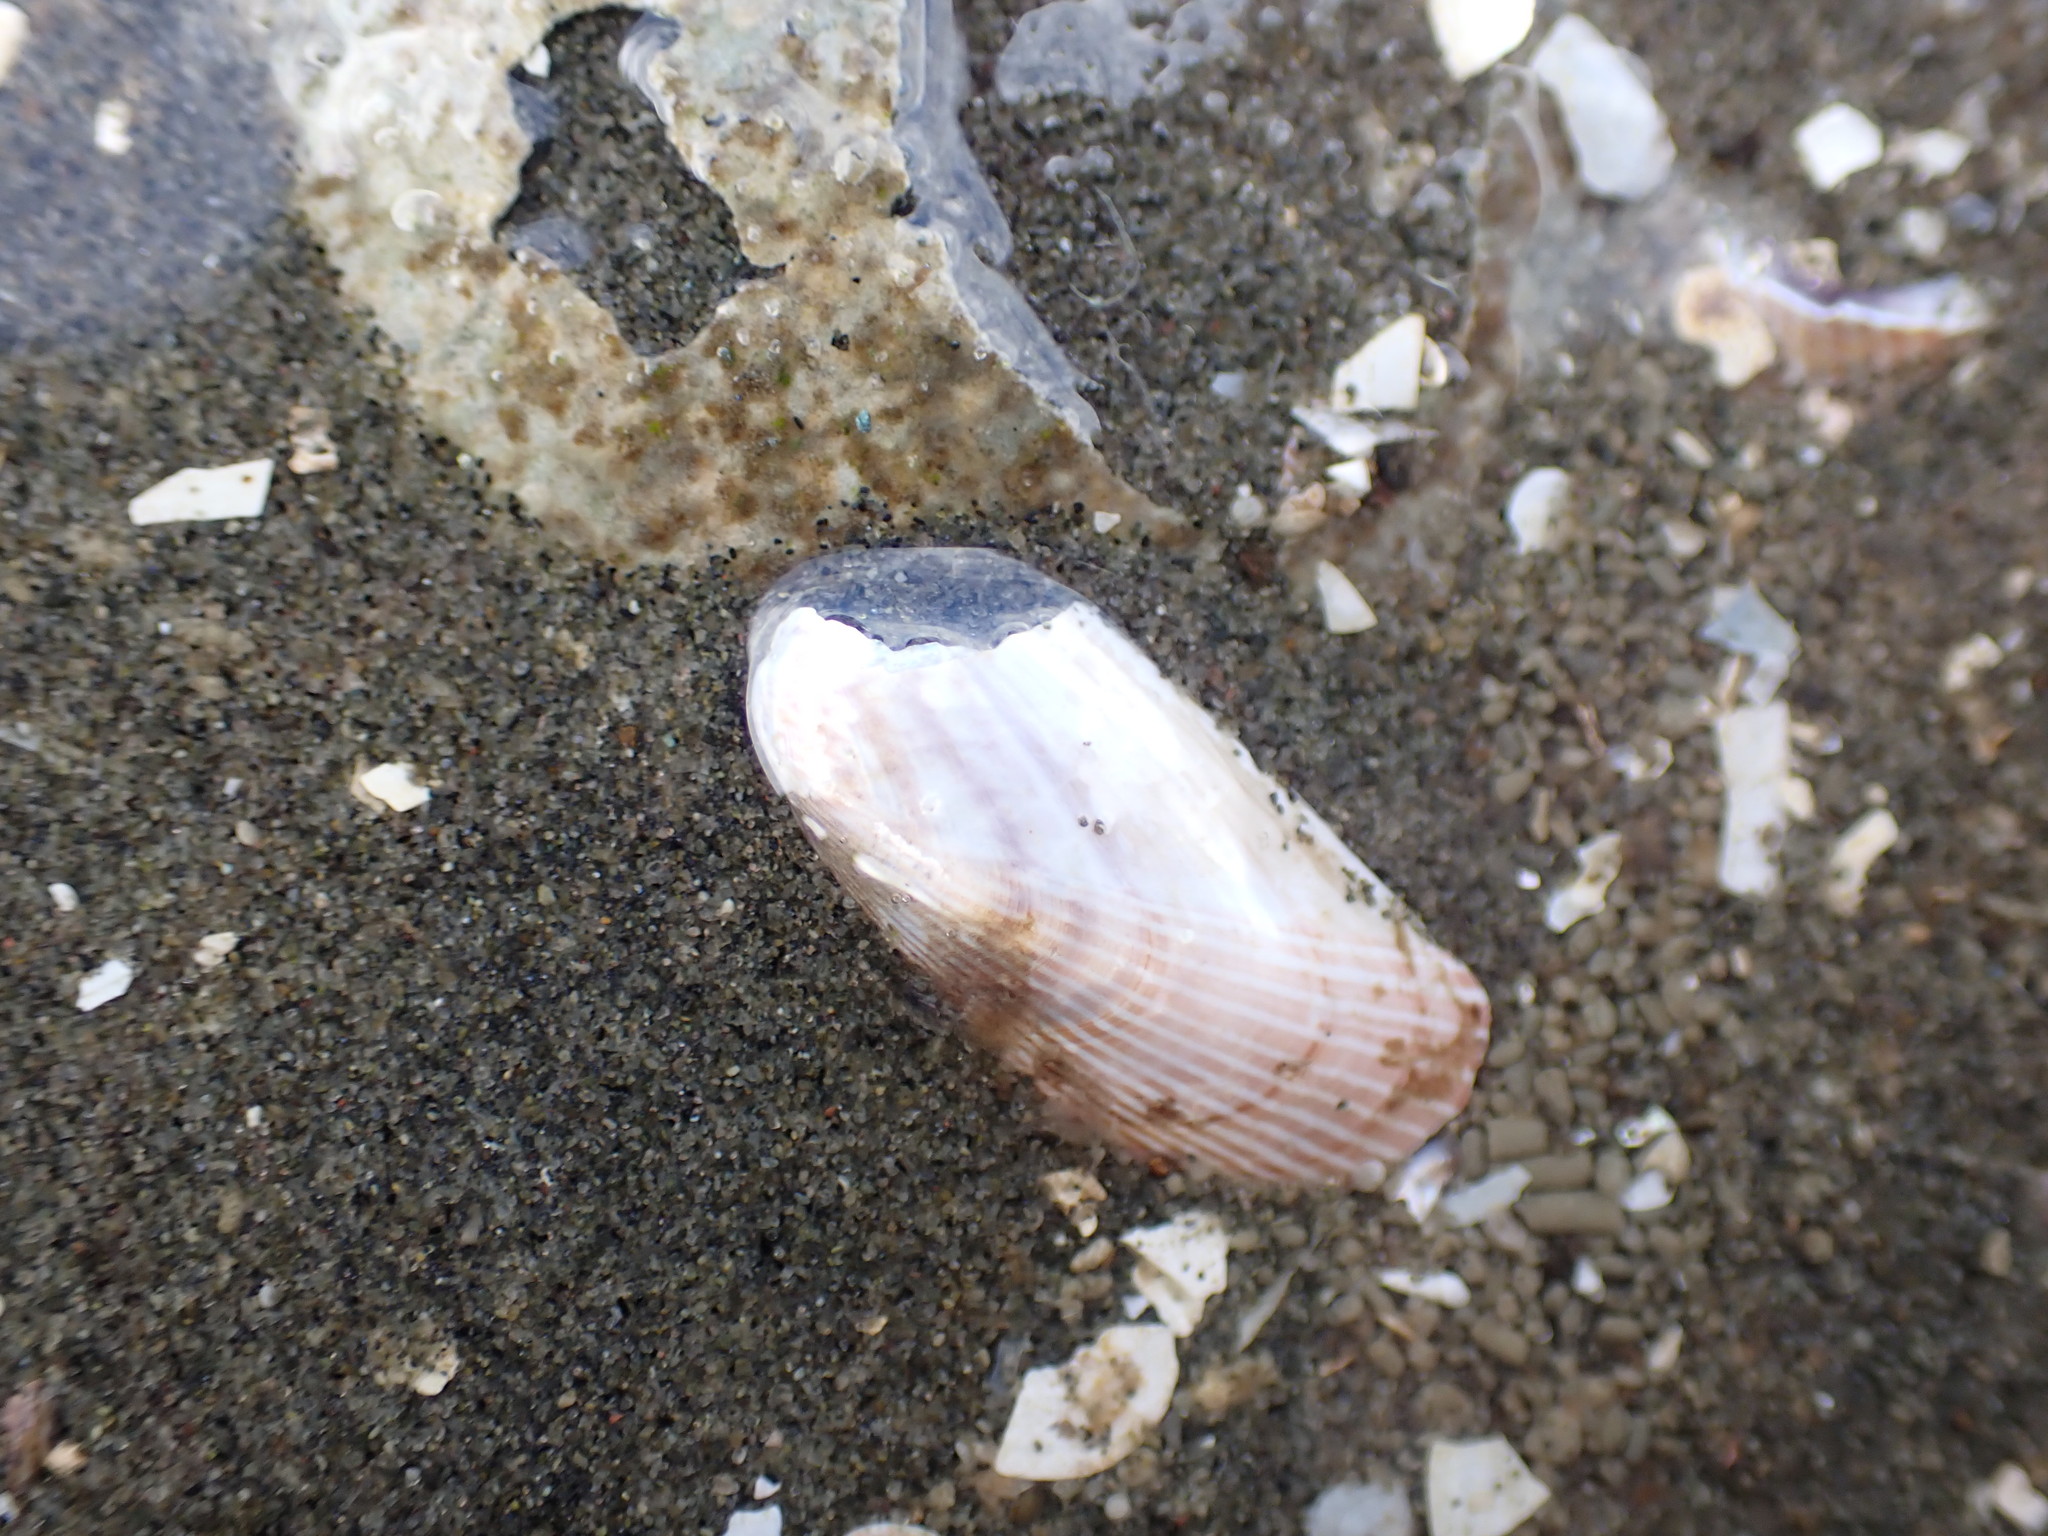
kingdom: Animalia
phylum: Mollusca
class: Bivalvia
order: Mytilida
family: Mytilidae
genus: Arcuatula
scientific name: Arcuatula senhousia
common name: Asian mussel
